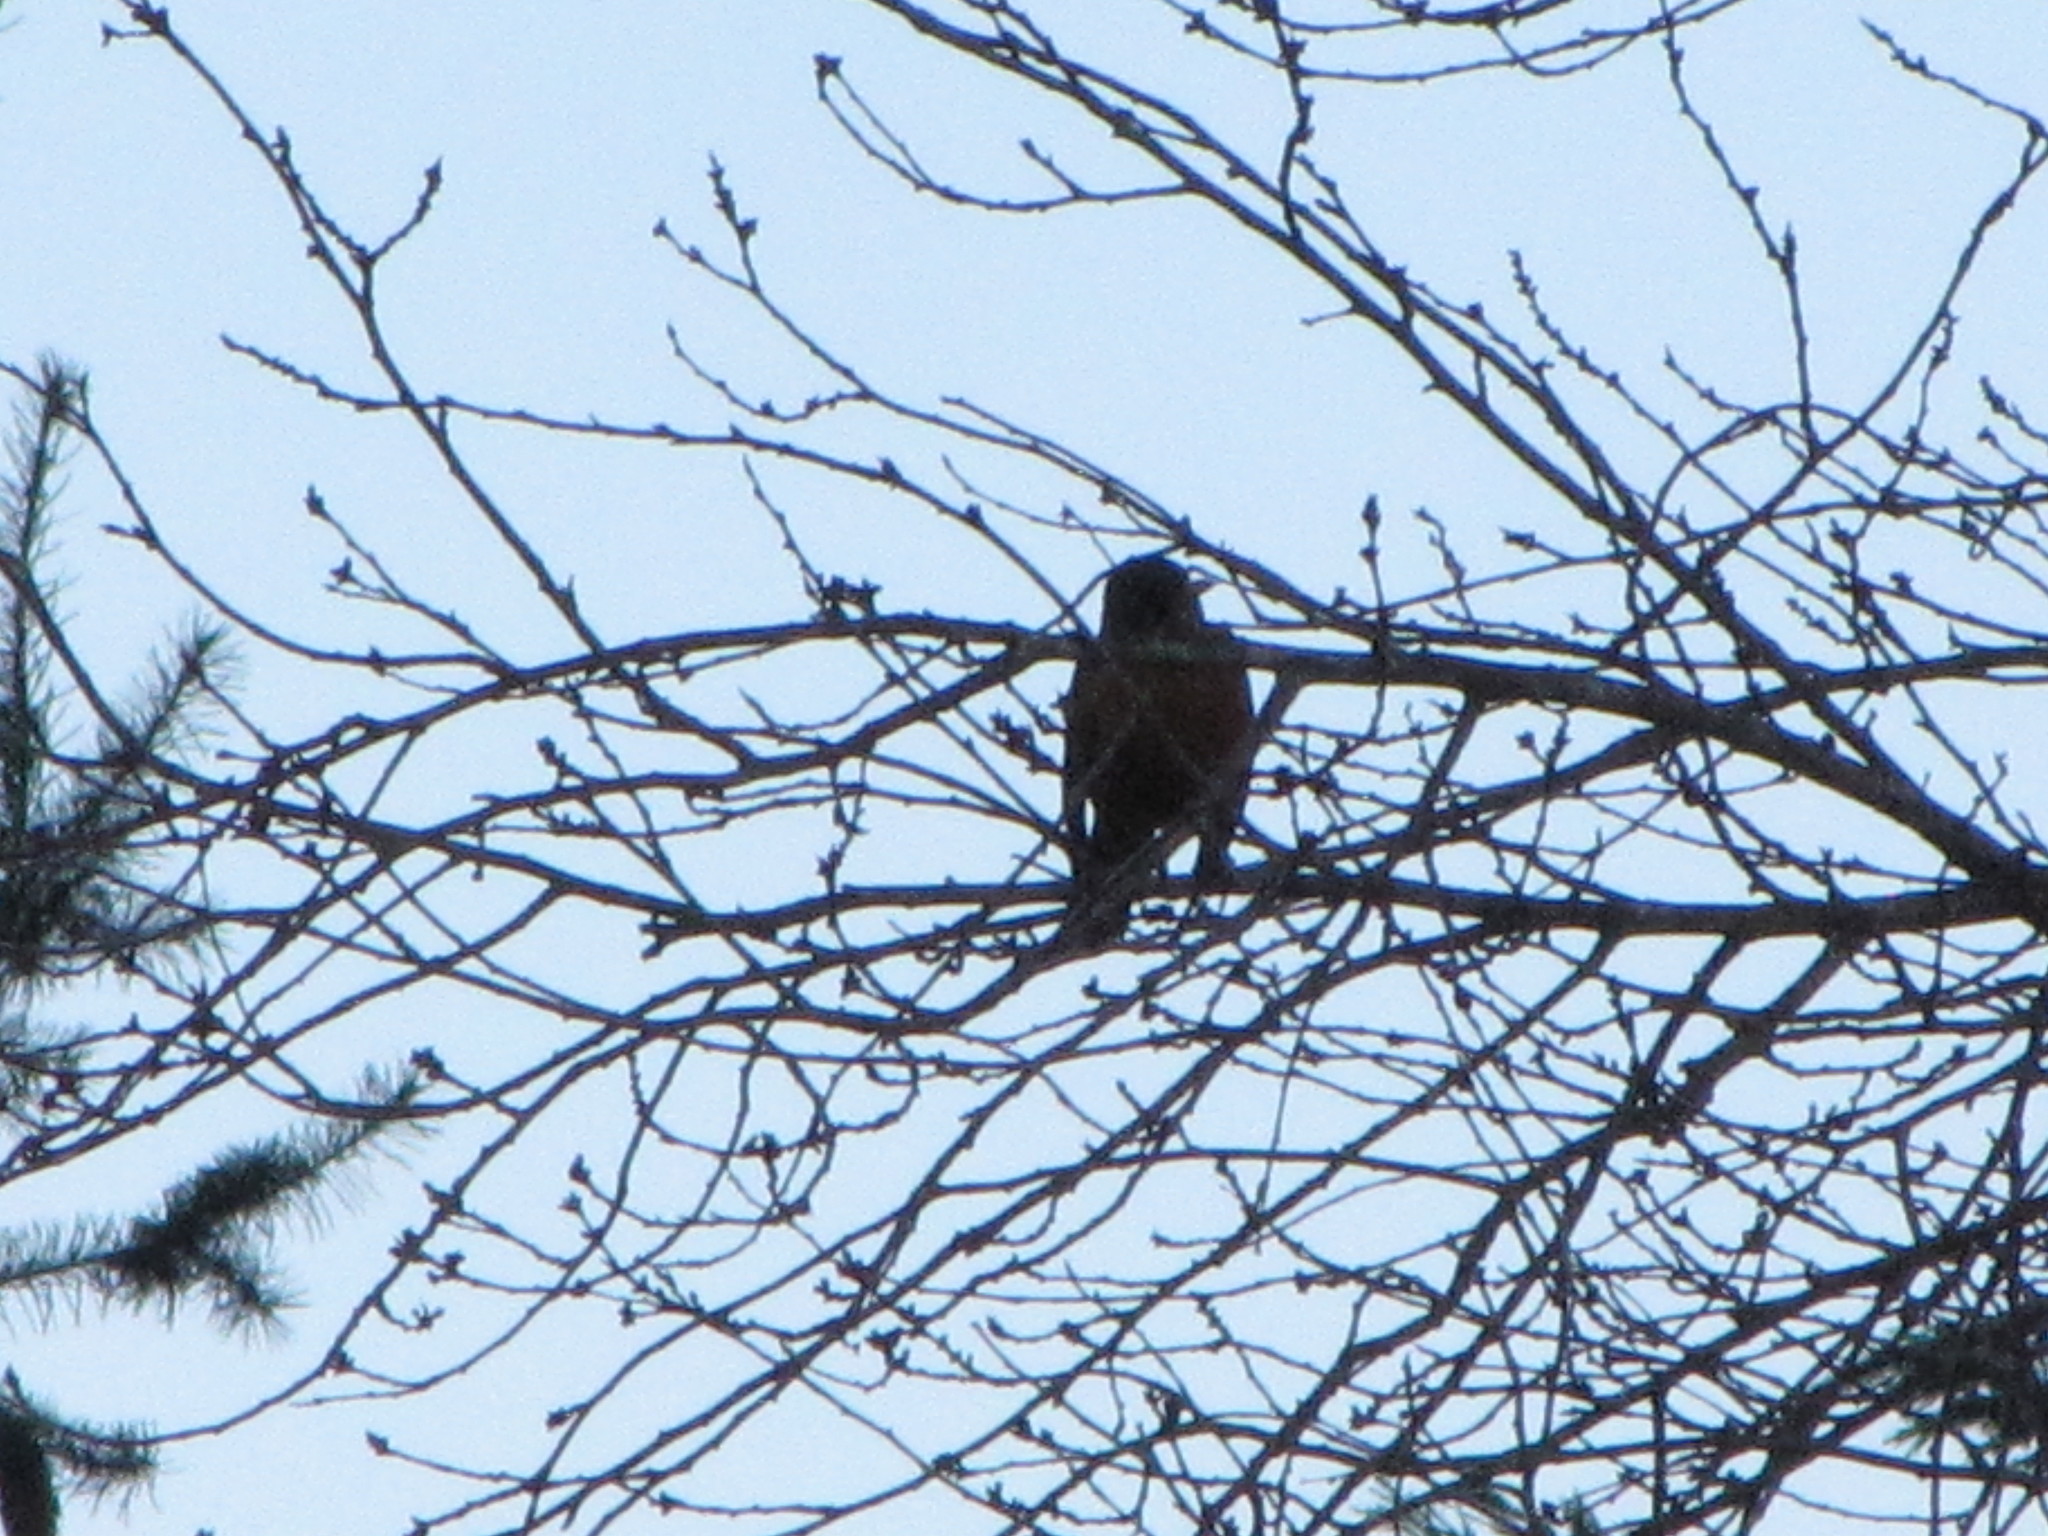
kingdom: Animalia
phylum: Chordata
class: Aves
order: Passeriformes
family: Turdidae
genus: Turdus
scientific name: Turdus migratorius
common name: American robin
